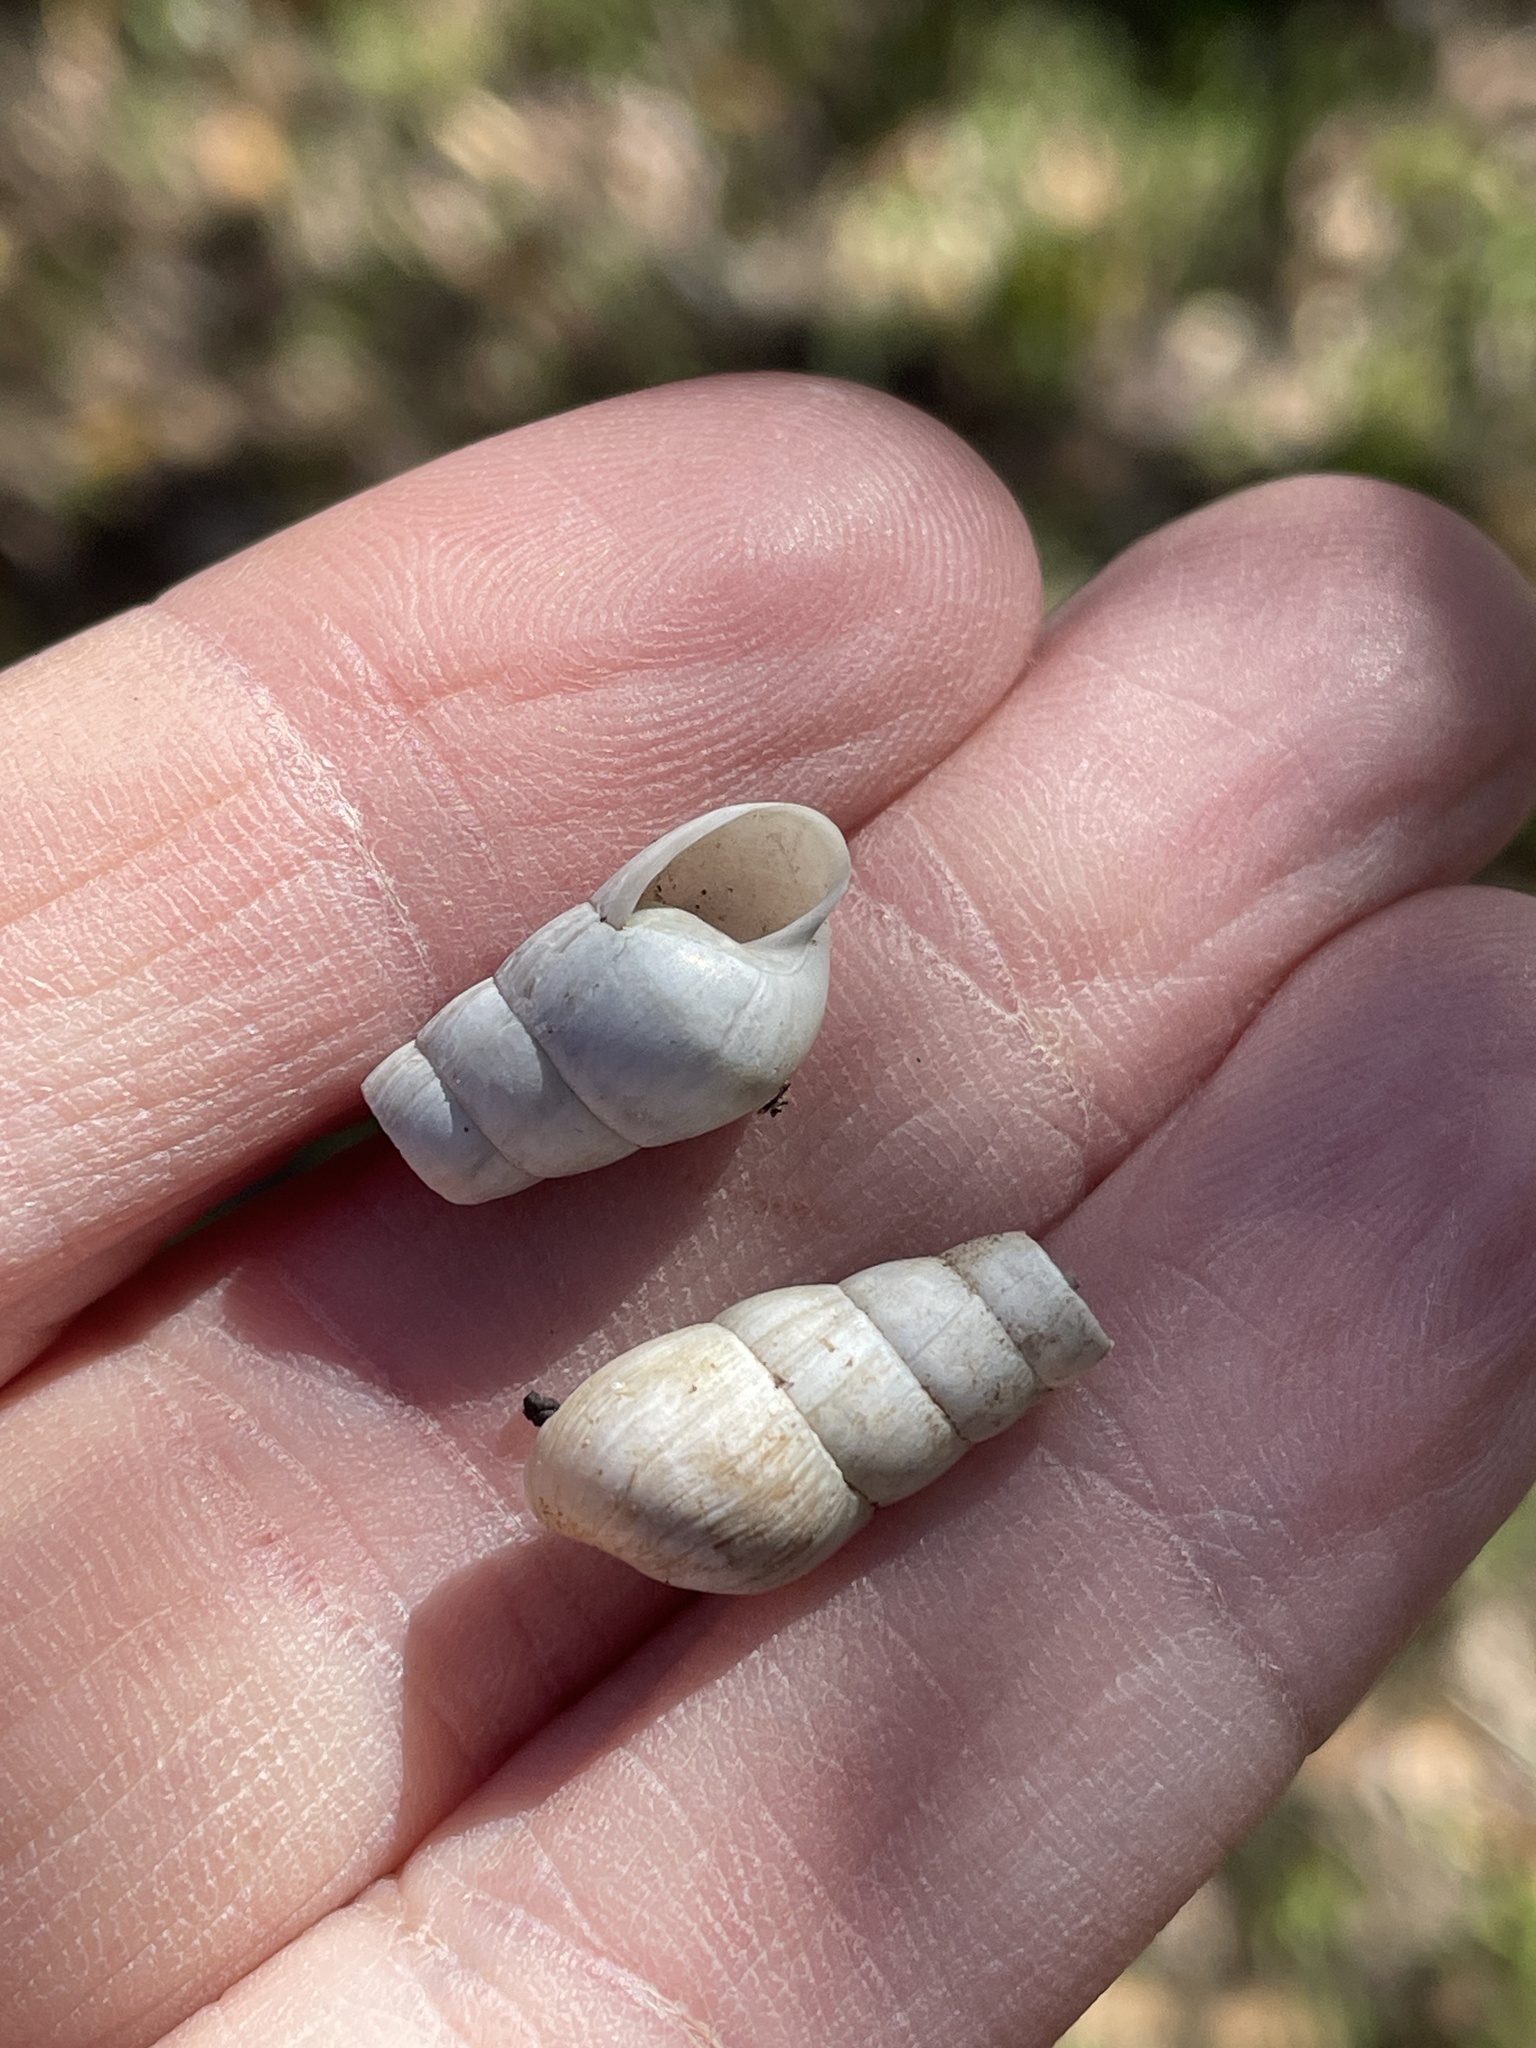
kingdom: Animalia
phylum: Mollusca
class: Gastropoda
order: Stylommatophora
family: Achatinidae
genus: Rumina
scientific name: Rumina decollata
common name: Decollate snail
